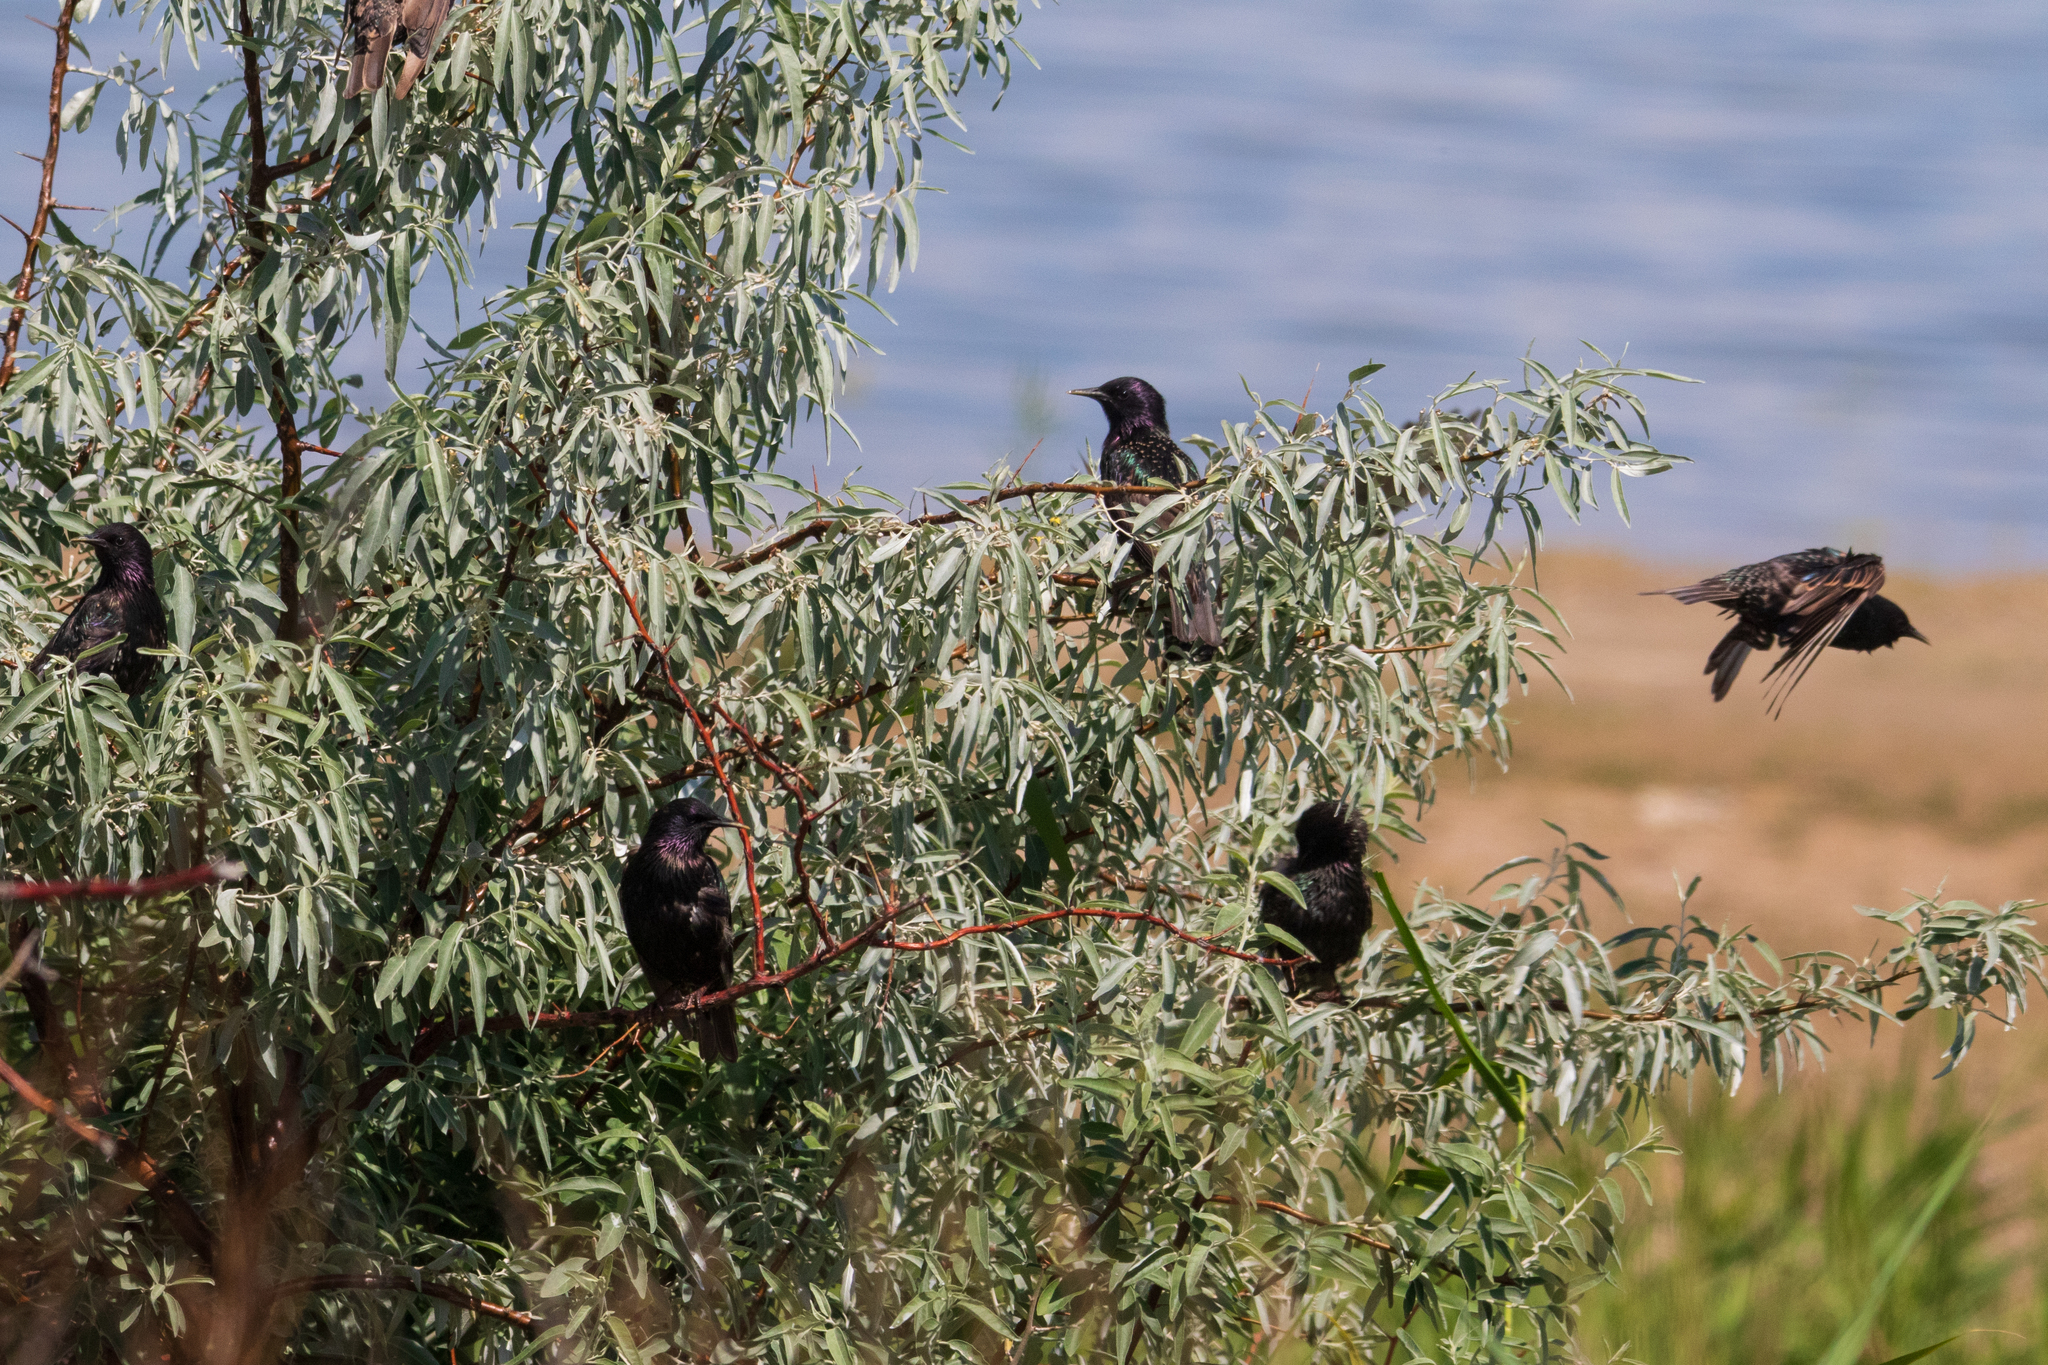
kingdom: Animalia
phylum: Chordata
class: Aves
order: Passeriformes
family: Sturnidae
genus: Sturnus
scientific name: Sturnus vulgaris
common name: Common starling
